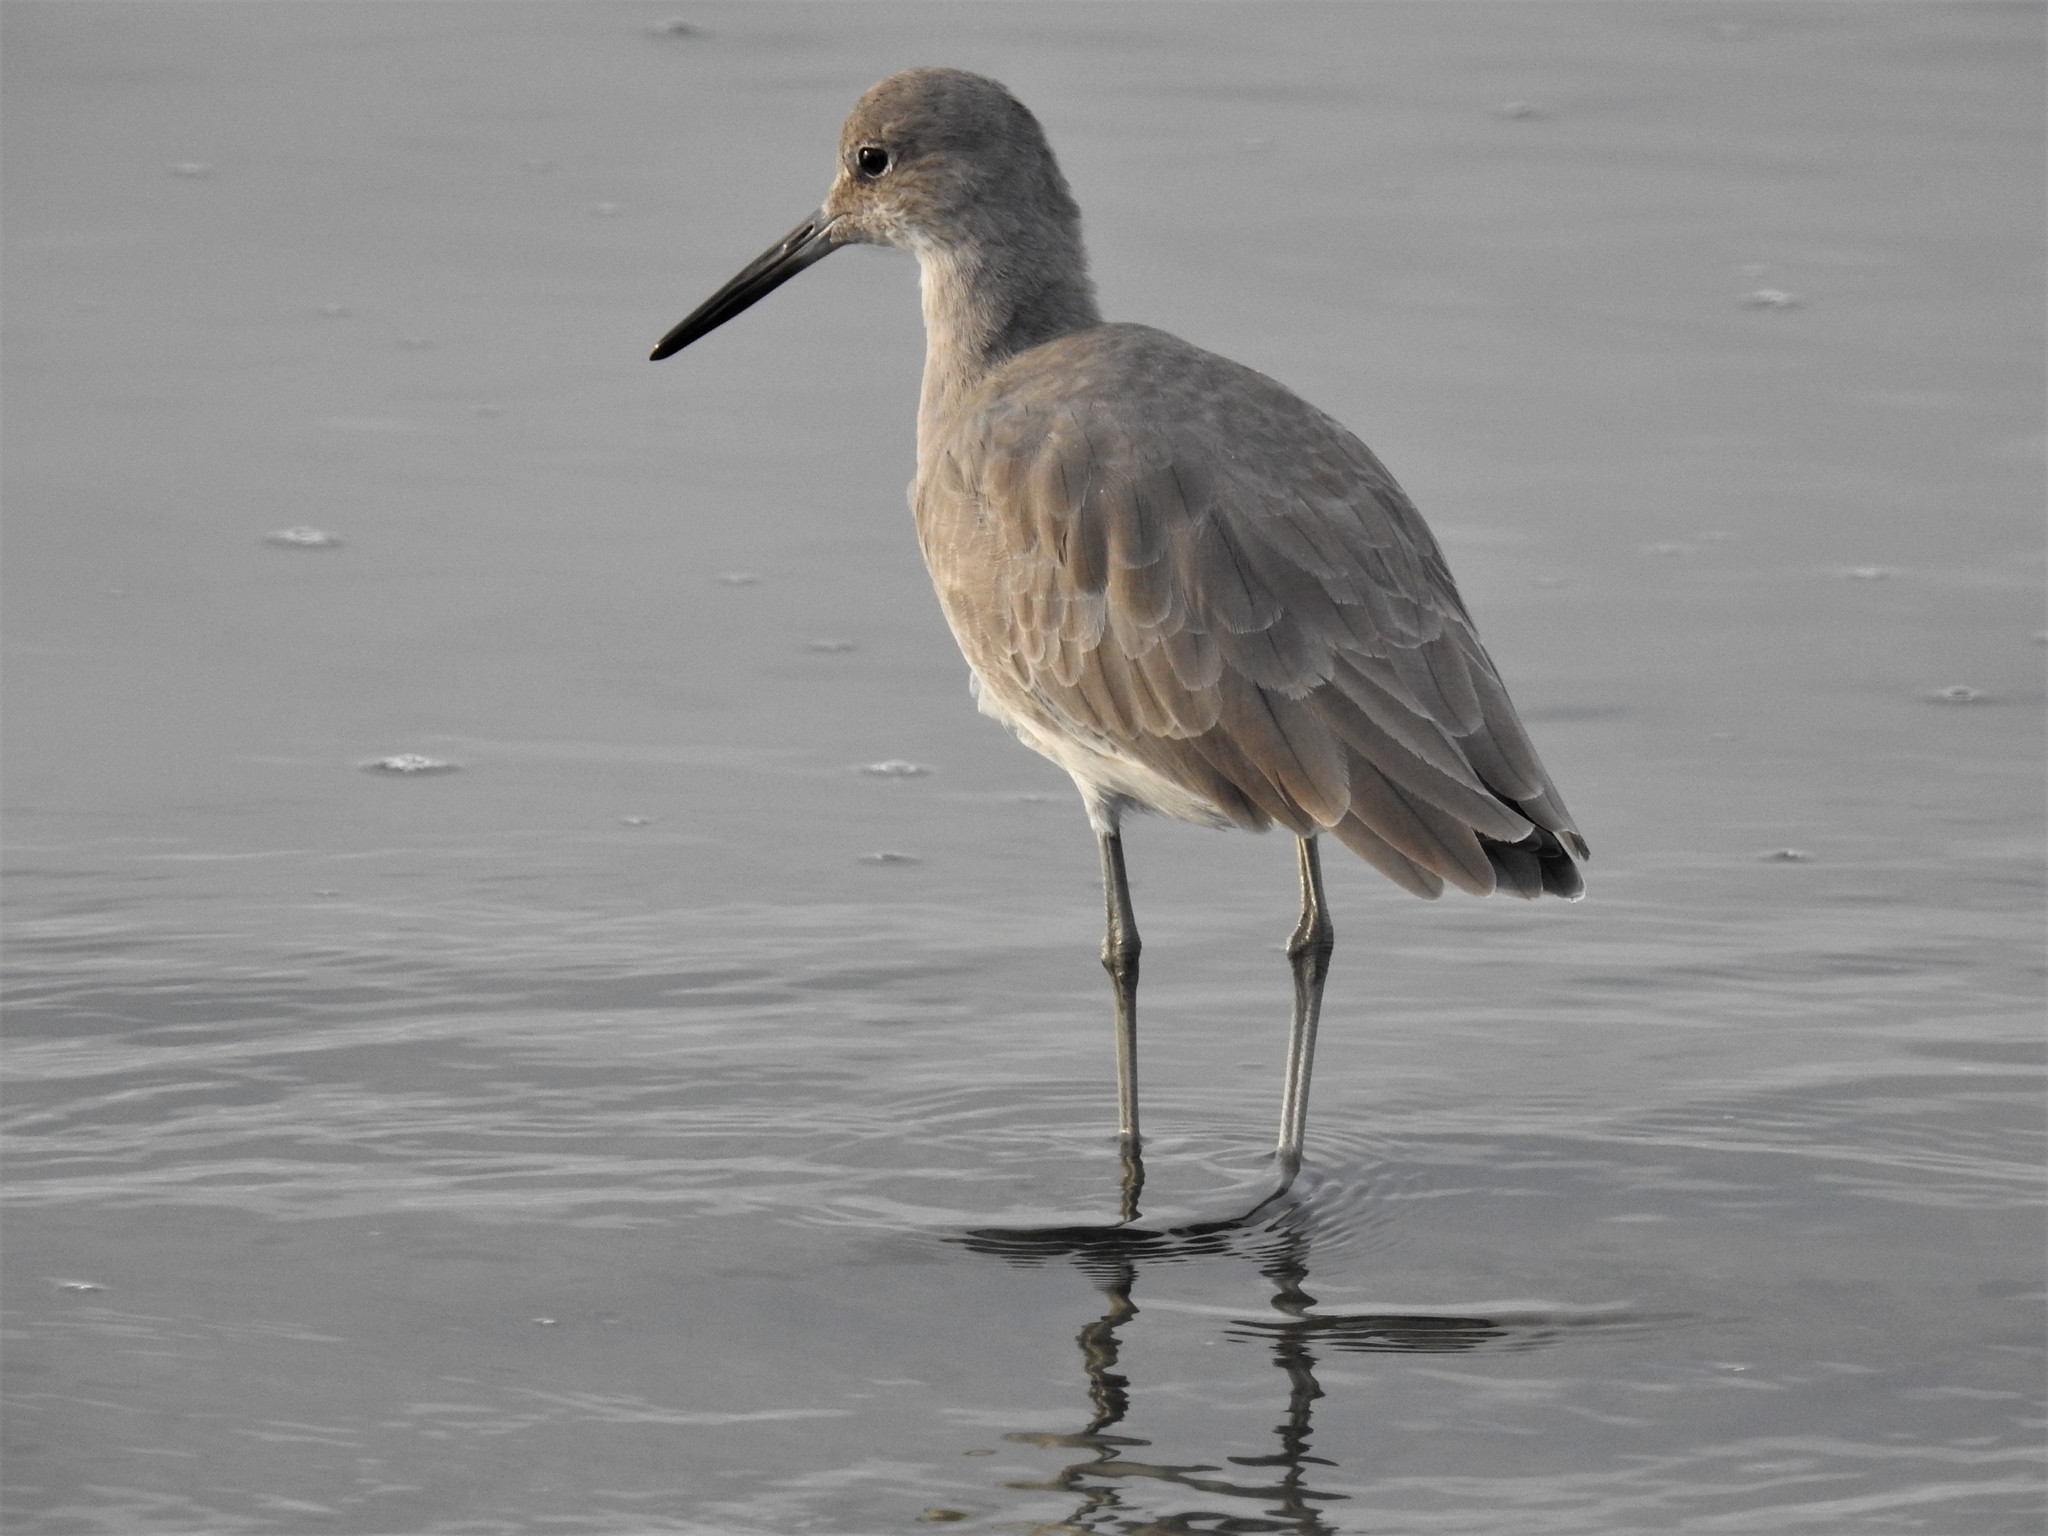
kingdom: Animalia
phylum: Chordata
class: Aves
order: Charadriiformes
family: Scolopacidae
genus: Tringa
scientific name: Tringa semipalmata
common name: Willet
